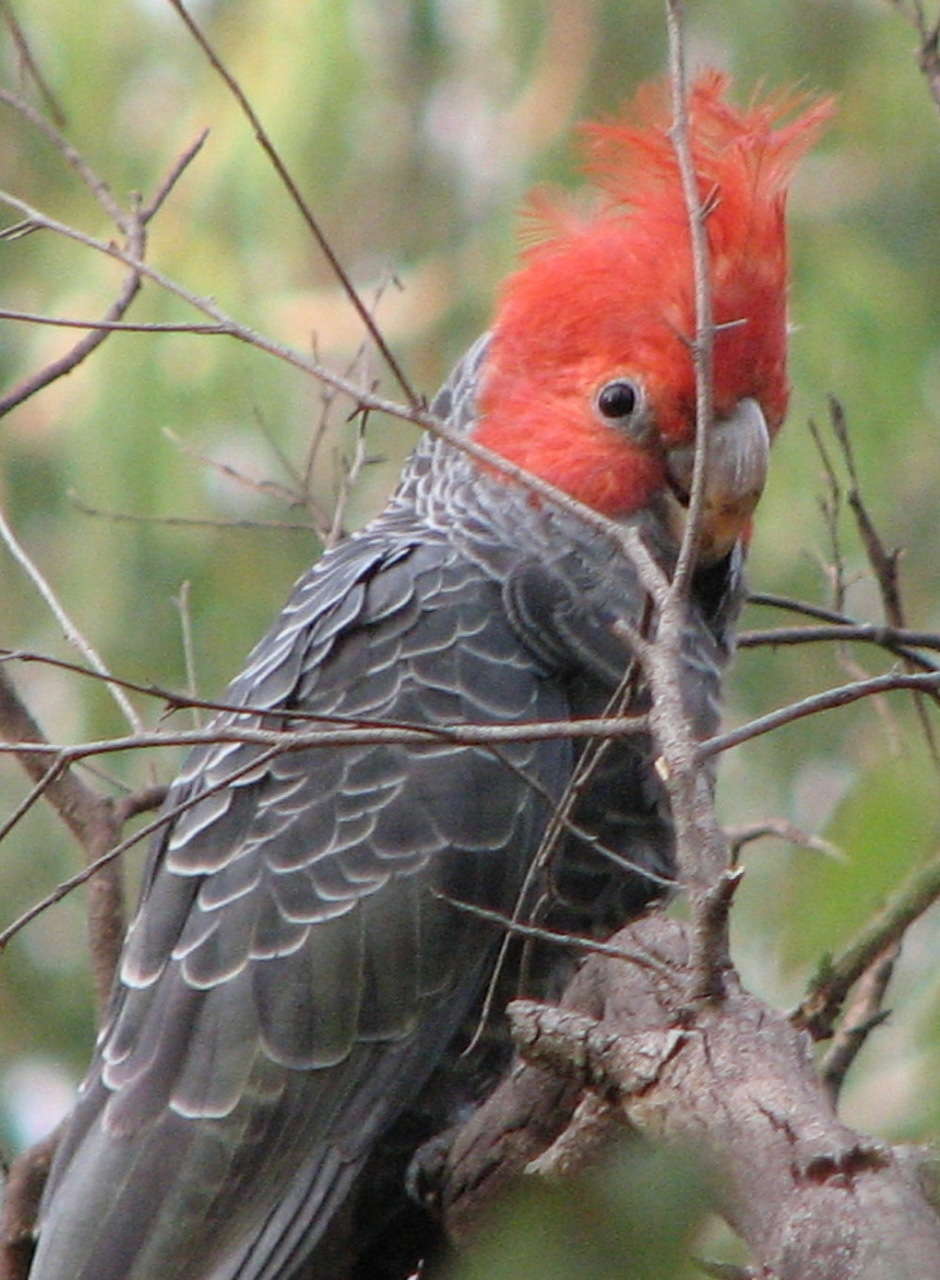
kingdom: Animalia
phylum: Chordata
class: Aves
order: Psittaciformes
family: Psittacidae
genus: Callocephalon
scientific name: Callocephalon fimbriatum
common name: Gang-gang cockatoo
